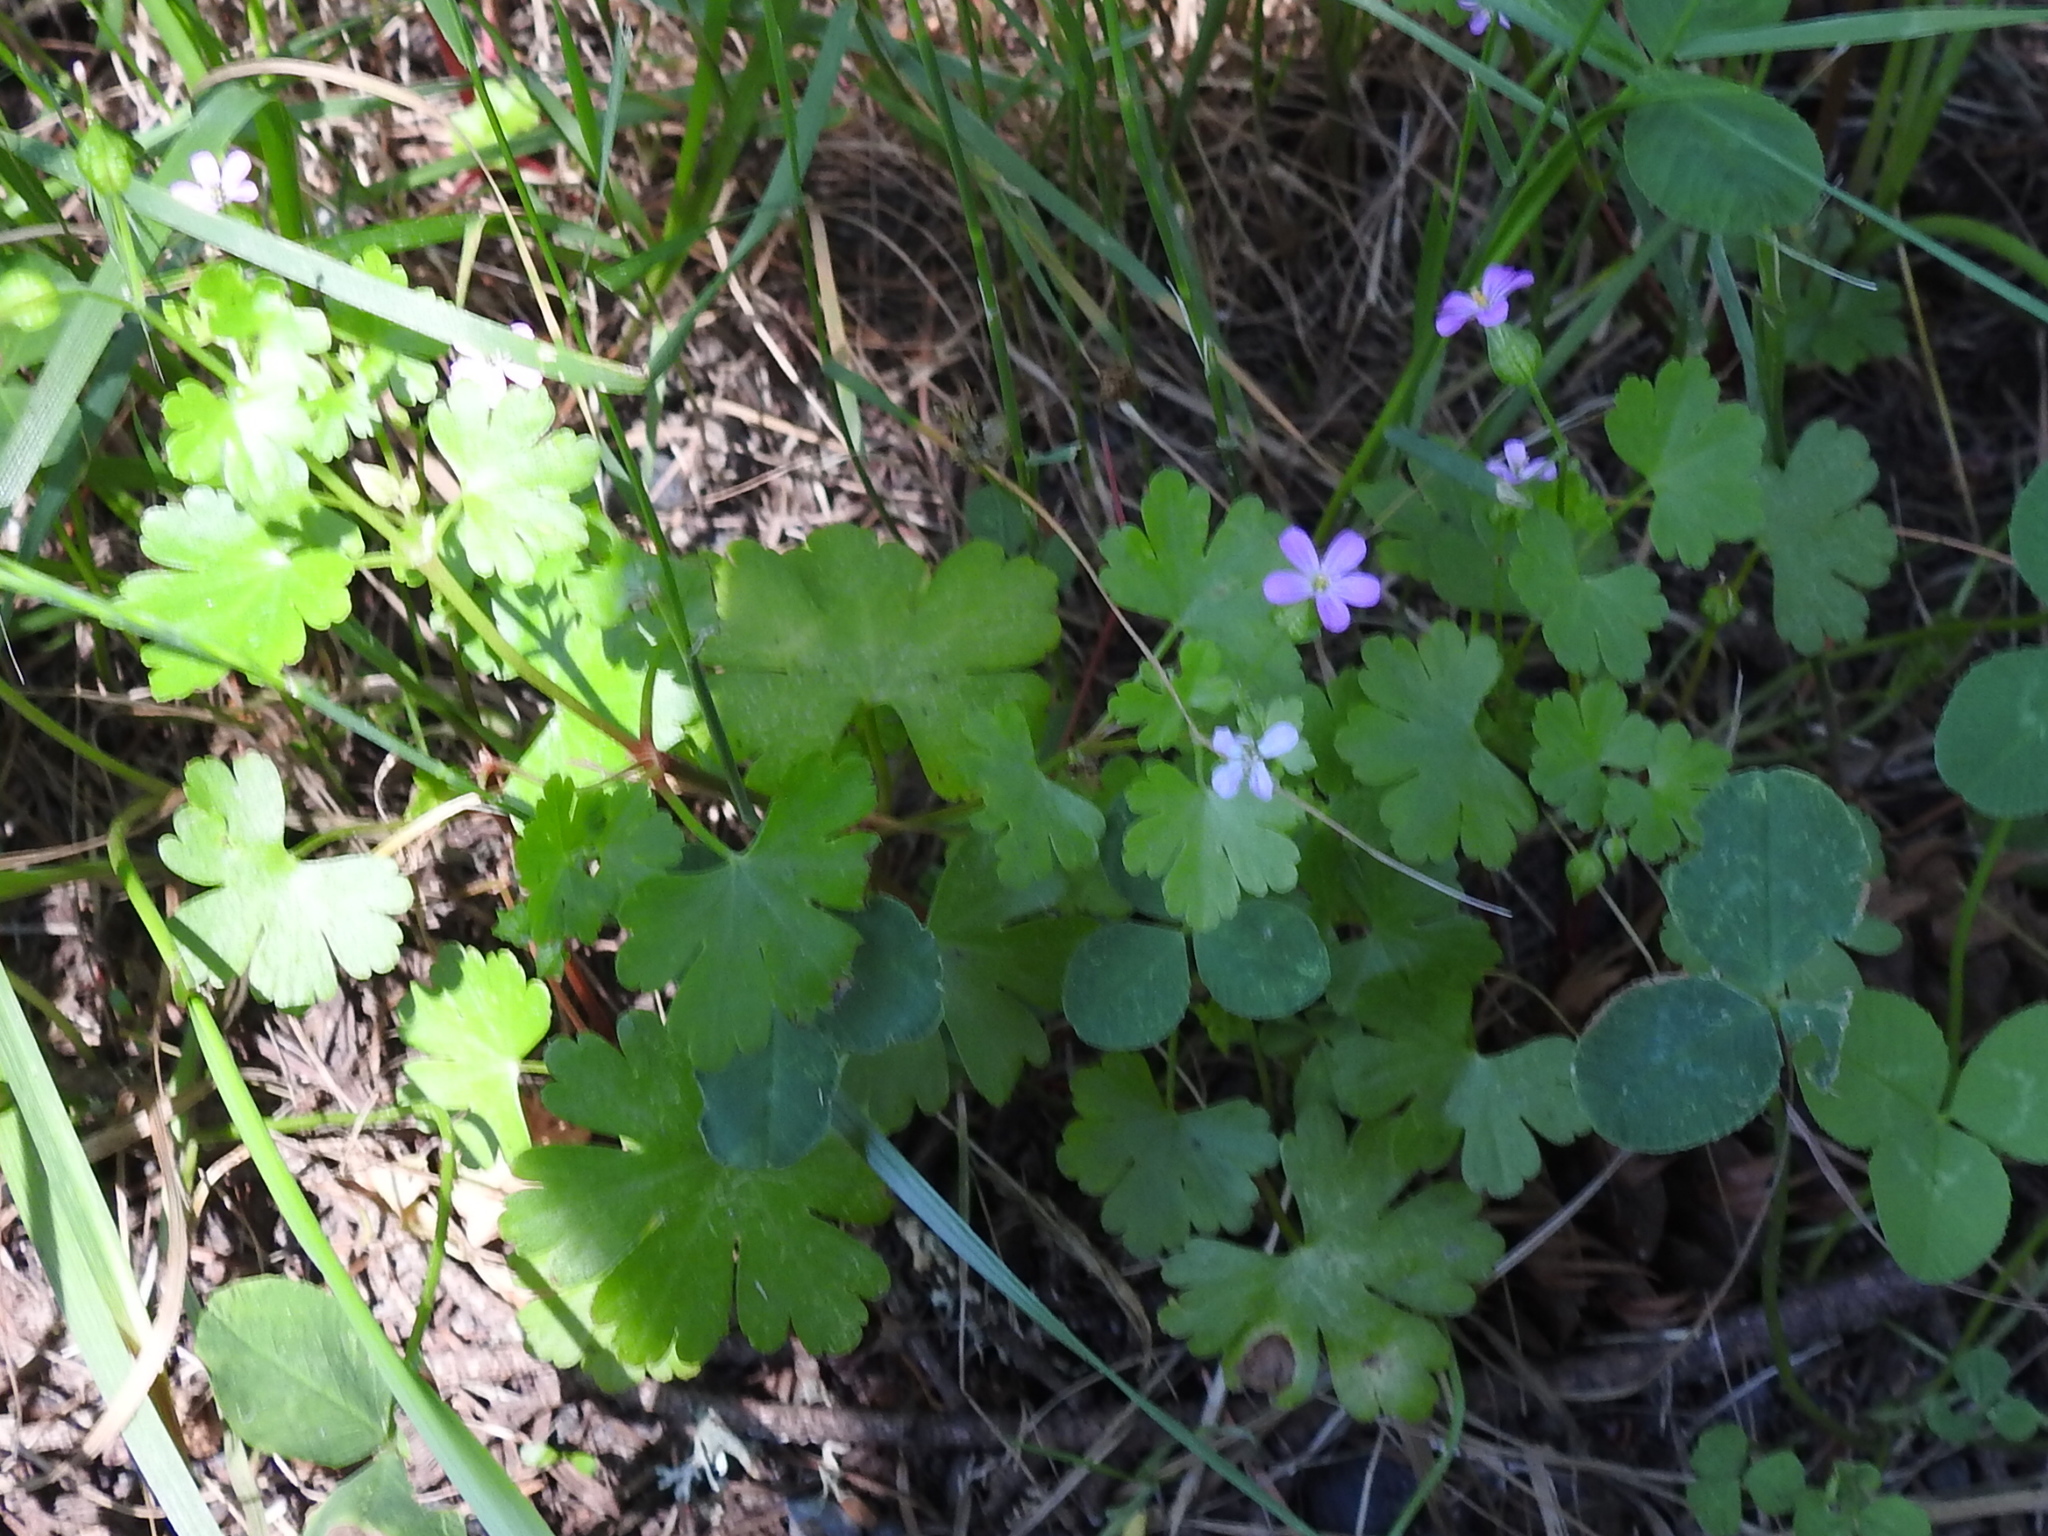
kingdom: Plantae
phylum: Tracheophyta
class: Magnoliopsida
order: Geraniales
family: Geraniaceae
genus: Geranium
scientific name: Geranium lucidum
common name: Shining crane's-bill
